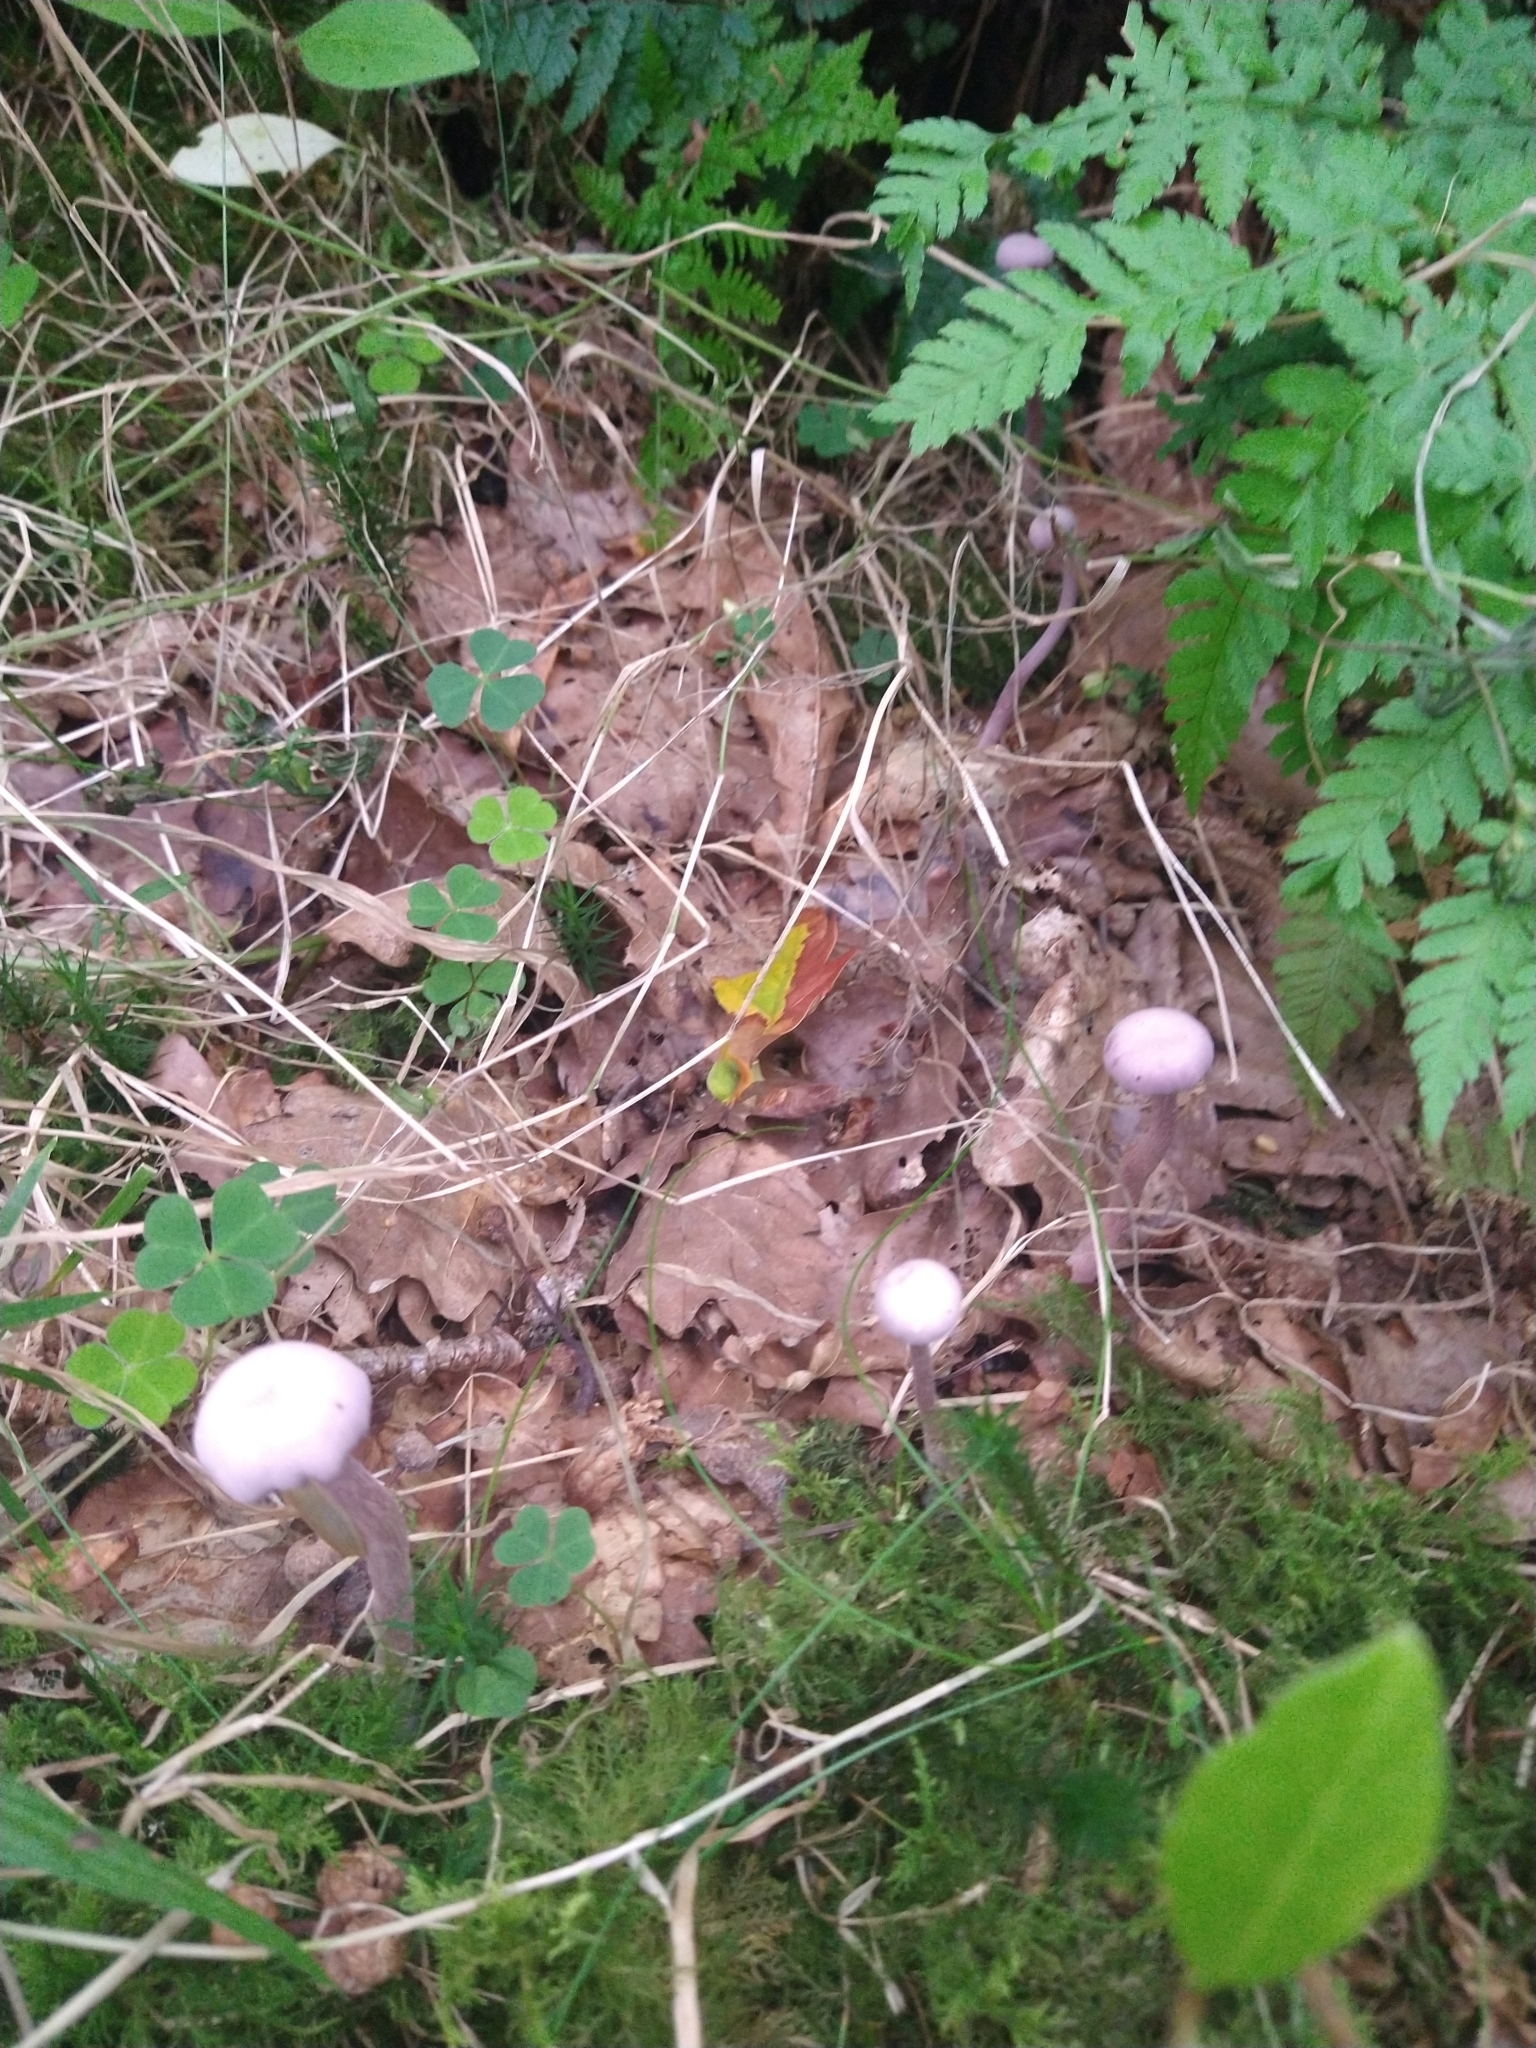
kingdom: Fungi
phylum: Basidiomycota
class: Agaricomycetes
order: Agaricales
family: Hydnangiaceae
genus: Laccaria
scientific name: Laccaria amethystina
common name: Amethyst deceiver
